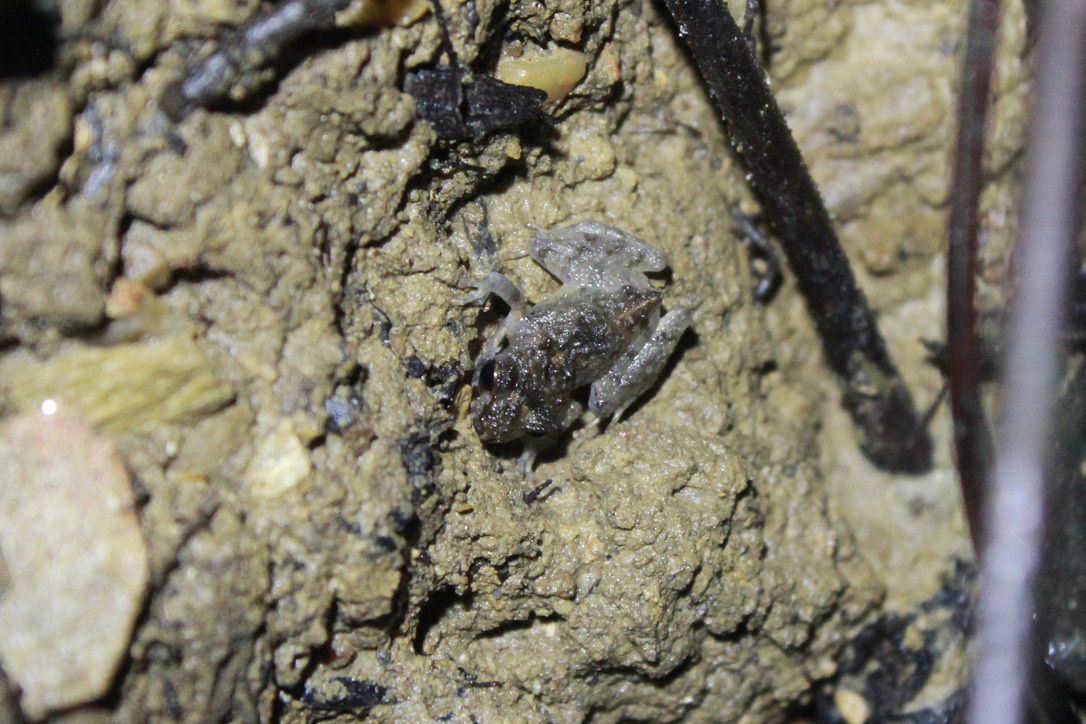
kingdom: Animalia
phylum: Chordata
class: Amphibia
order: Anura
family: Craugastoridae
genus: Pristimantis
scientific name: Pristimantis urichi
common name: Lesser antilles robber frog
